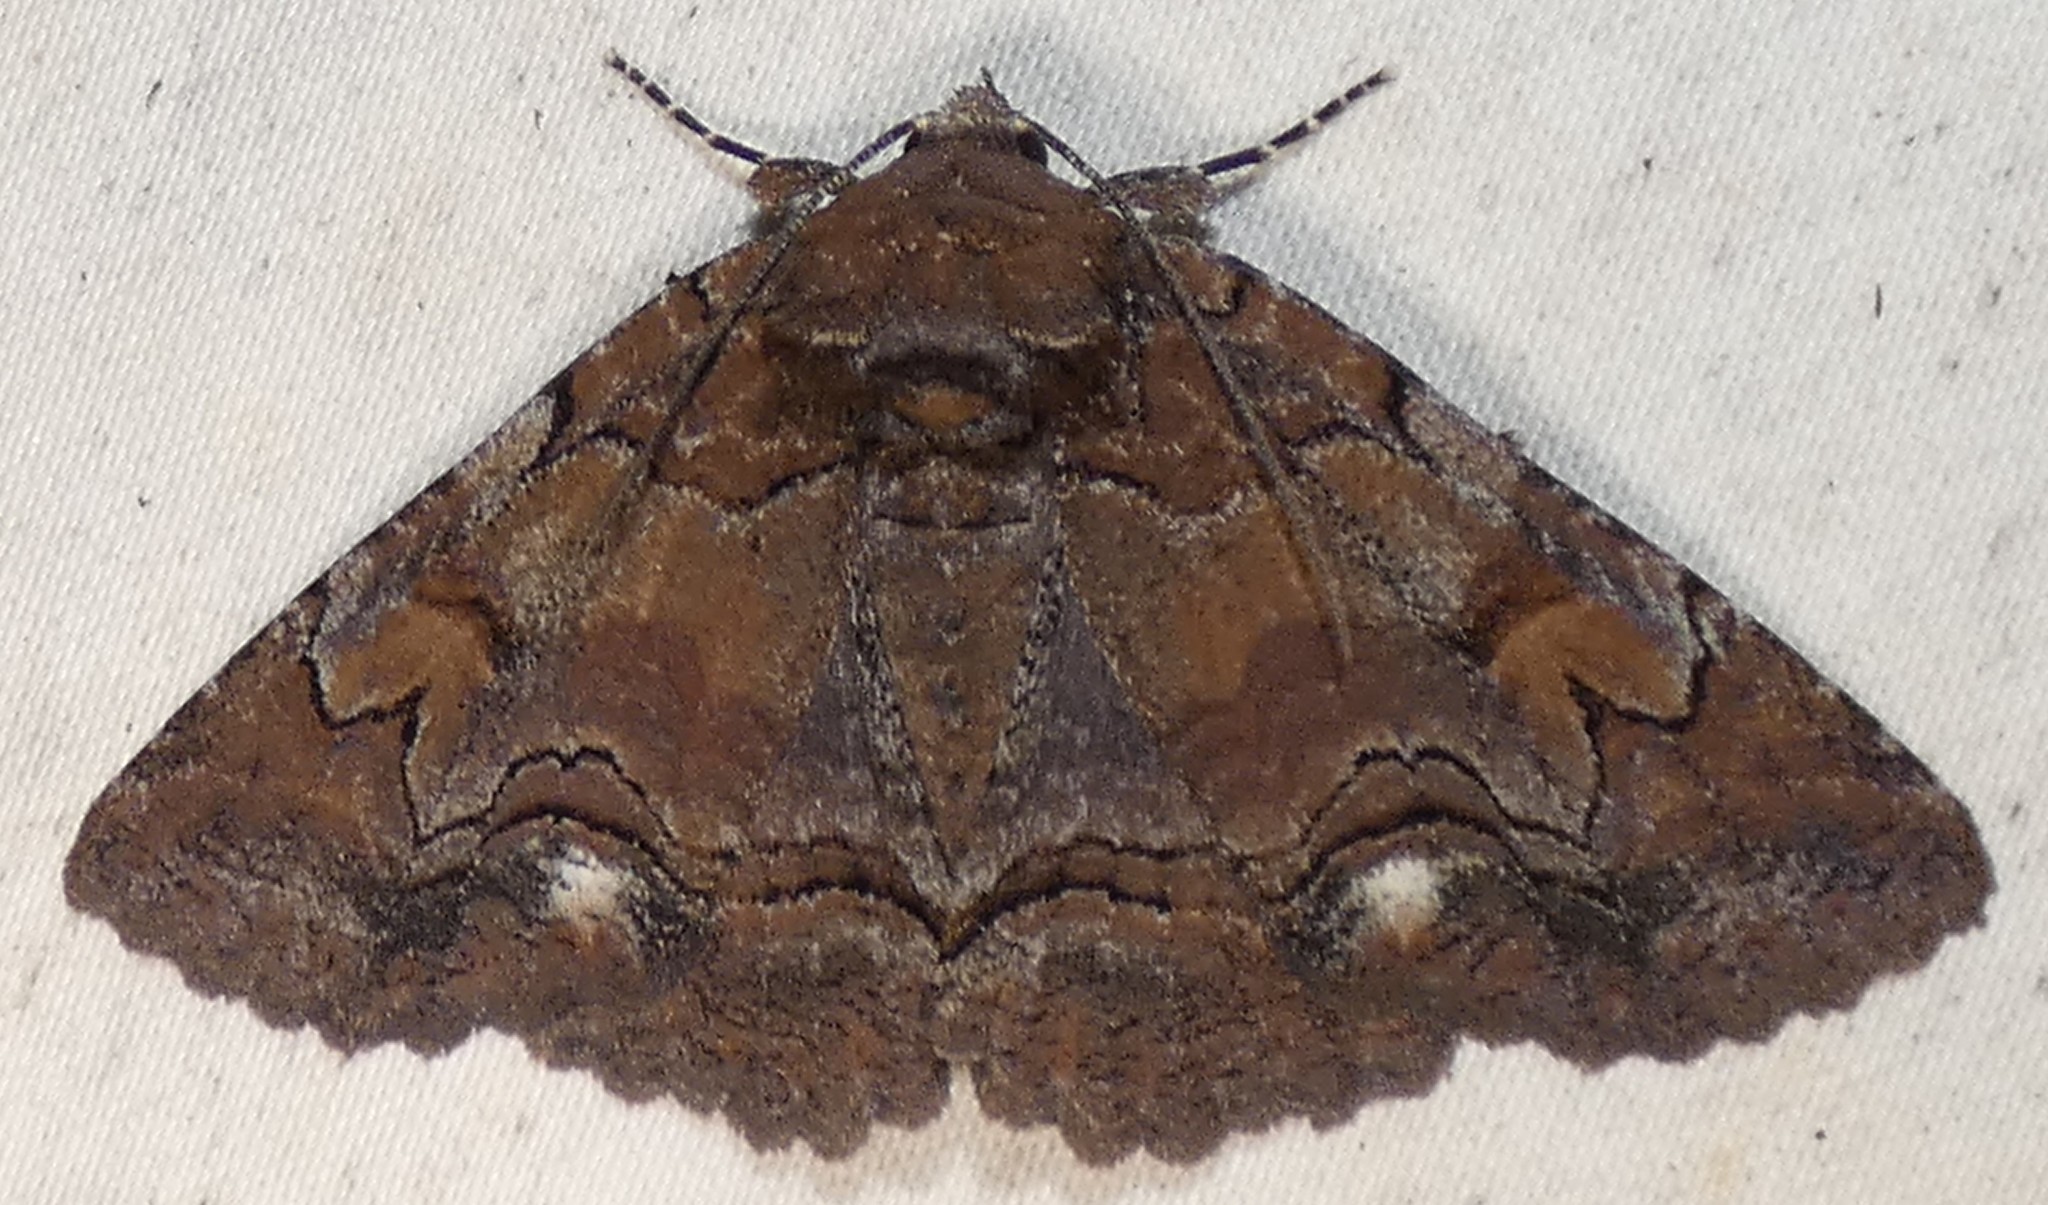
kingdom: Animalia
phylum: Arthropoda
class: Insecta
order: Lepidoptera
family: Erebidae
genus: Zale
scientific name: Zale helata
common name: Brown-spotted zale moth
